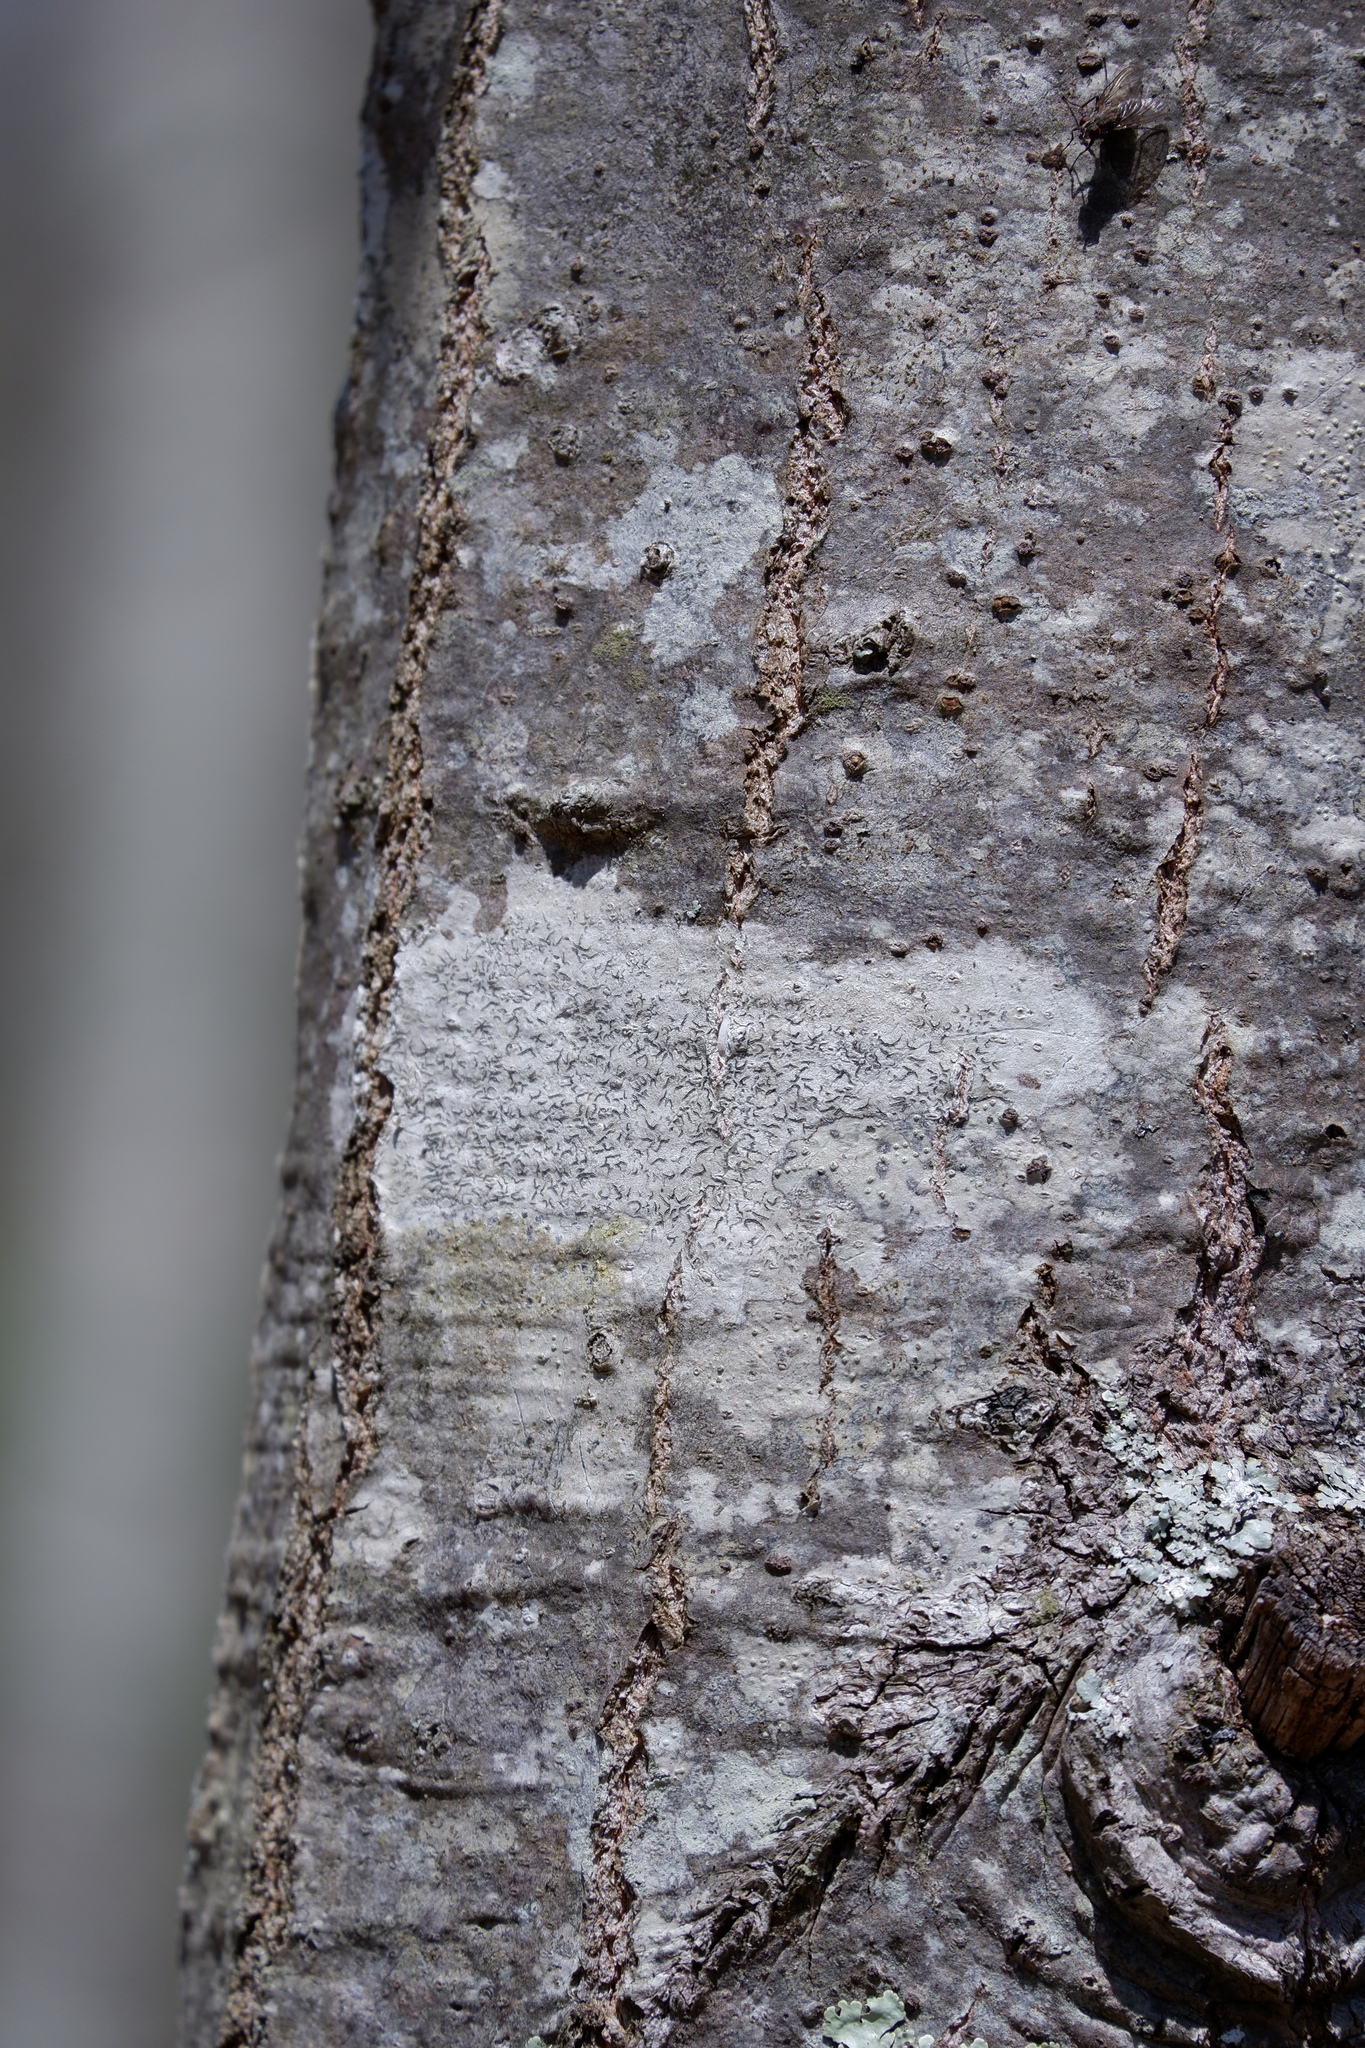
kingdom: Fungi
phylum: Ascomycota
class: Lecanoromycetes
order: Ostropales
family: Graphidaceae
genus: Graphis
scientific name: Graphis scripta
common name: Script lichen
